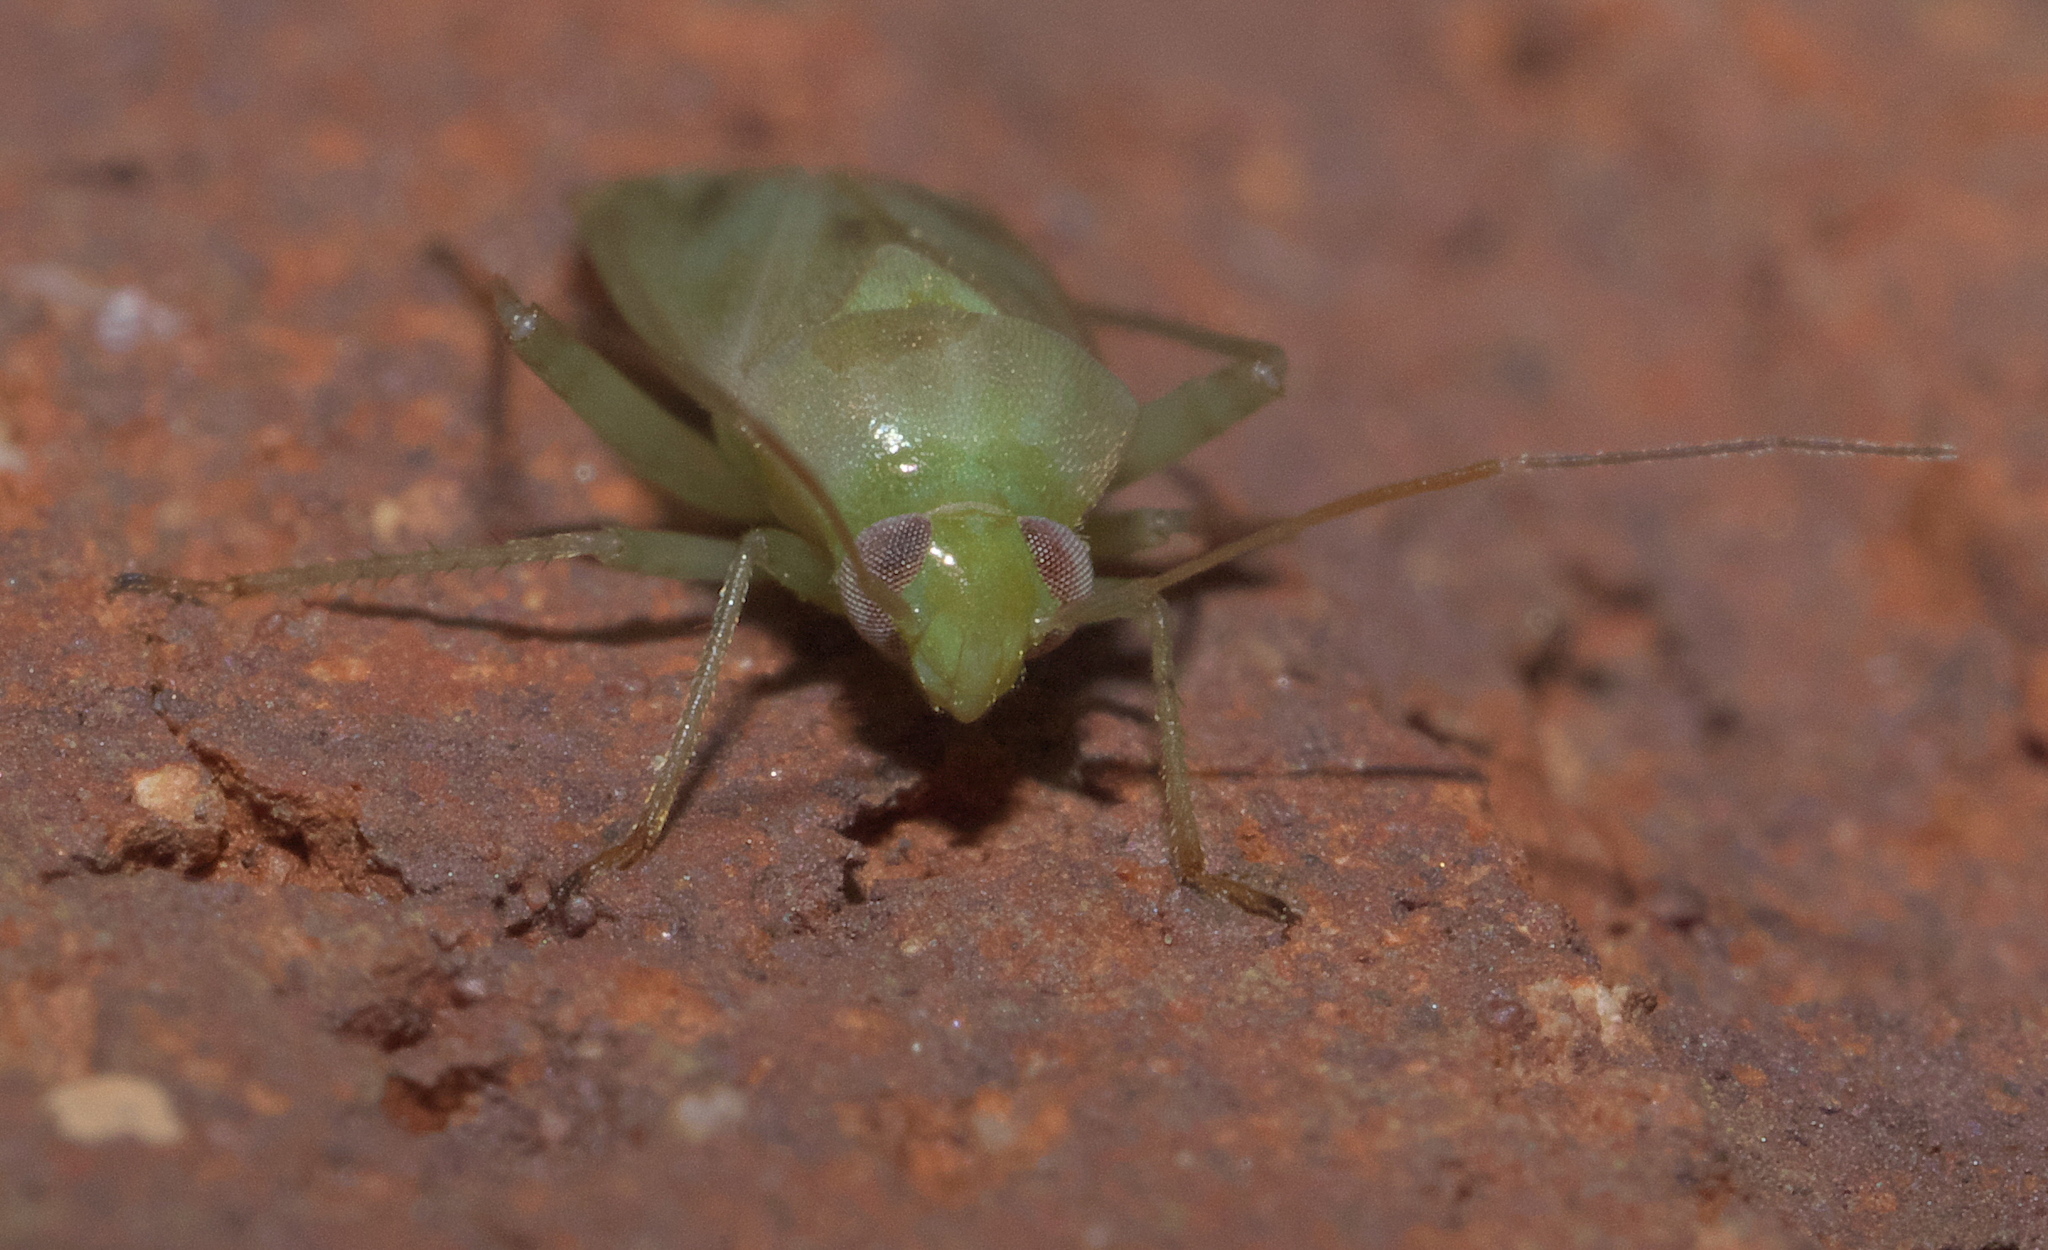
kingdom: Animalia
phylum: Arthropoda
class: Insecta
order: Hemiptera
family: Miridae
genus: Taylorilygus
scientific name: Taylorilygus apicalis
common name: Plant bug
